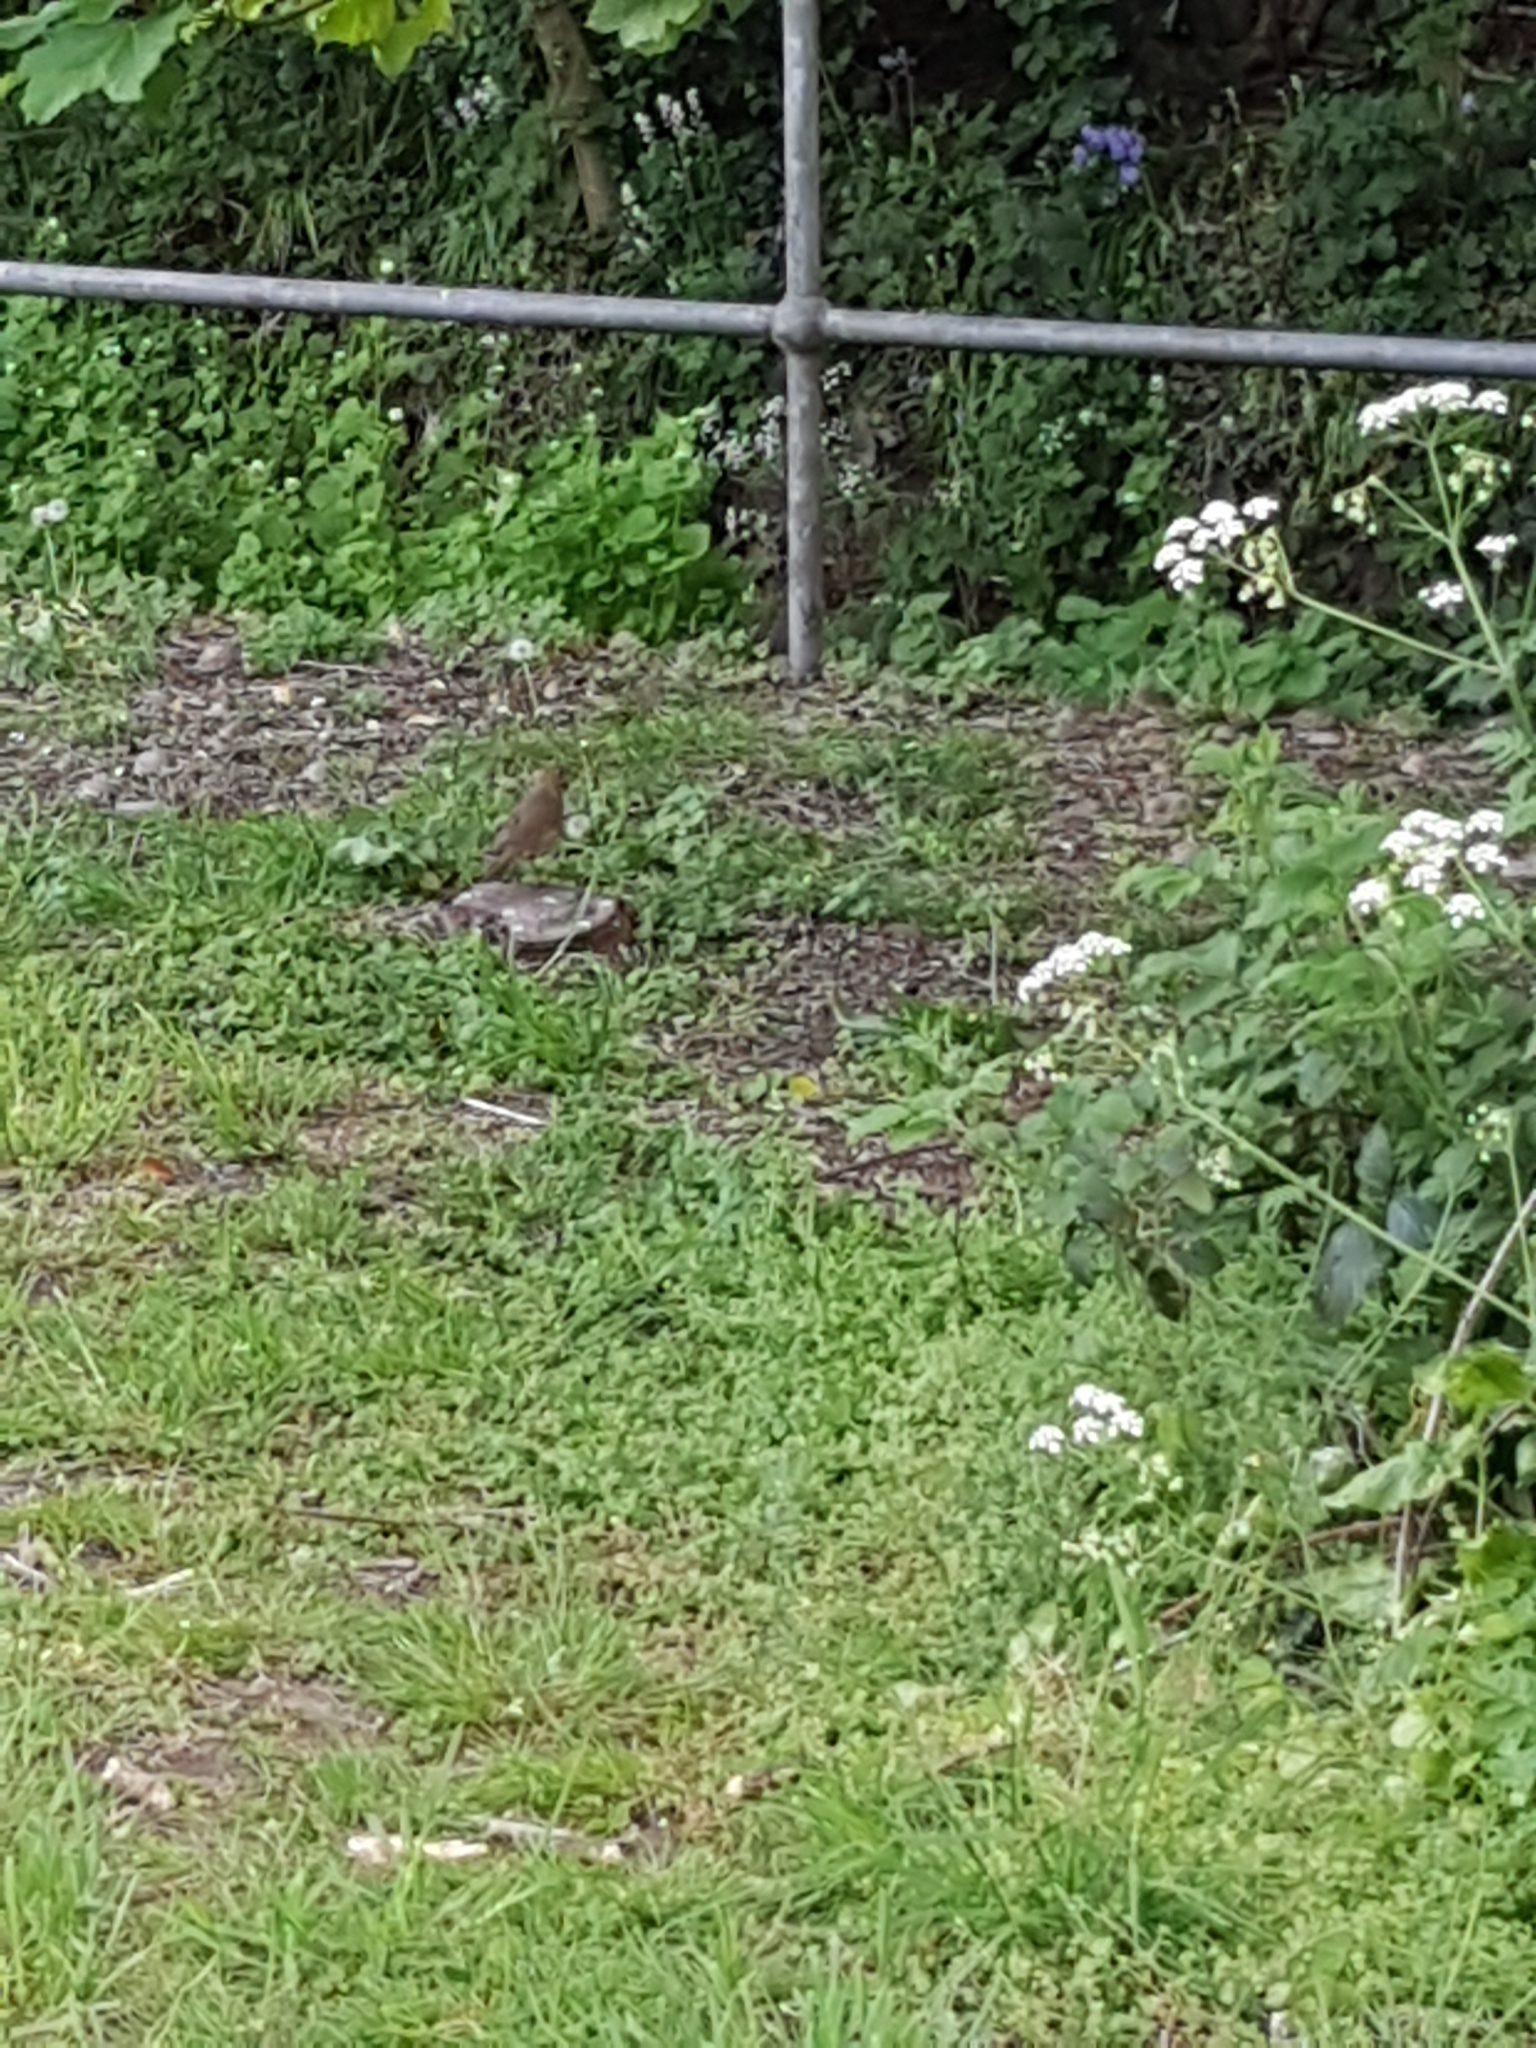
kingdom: Animalia
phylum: Chordata
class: Aves
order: Passeriformes
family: Turdidae
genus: Turdus
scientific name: Turdus philomelos
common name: Song thrush
